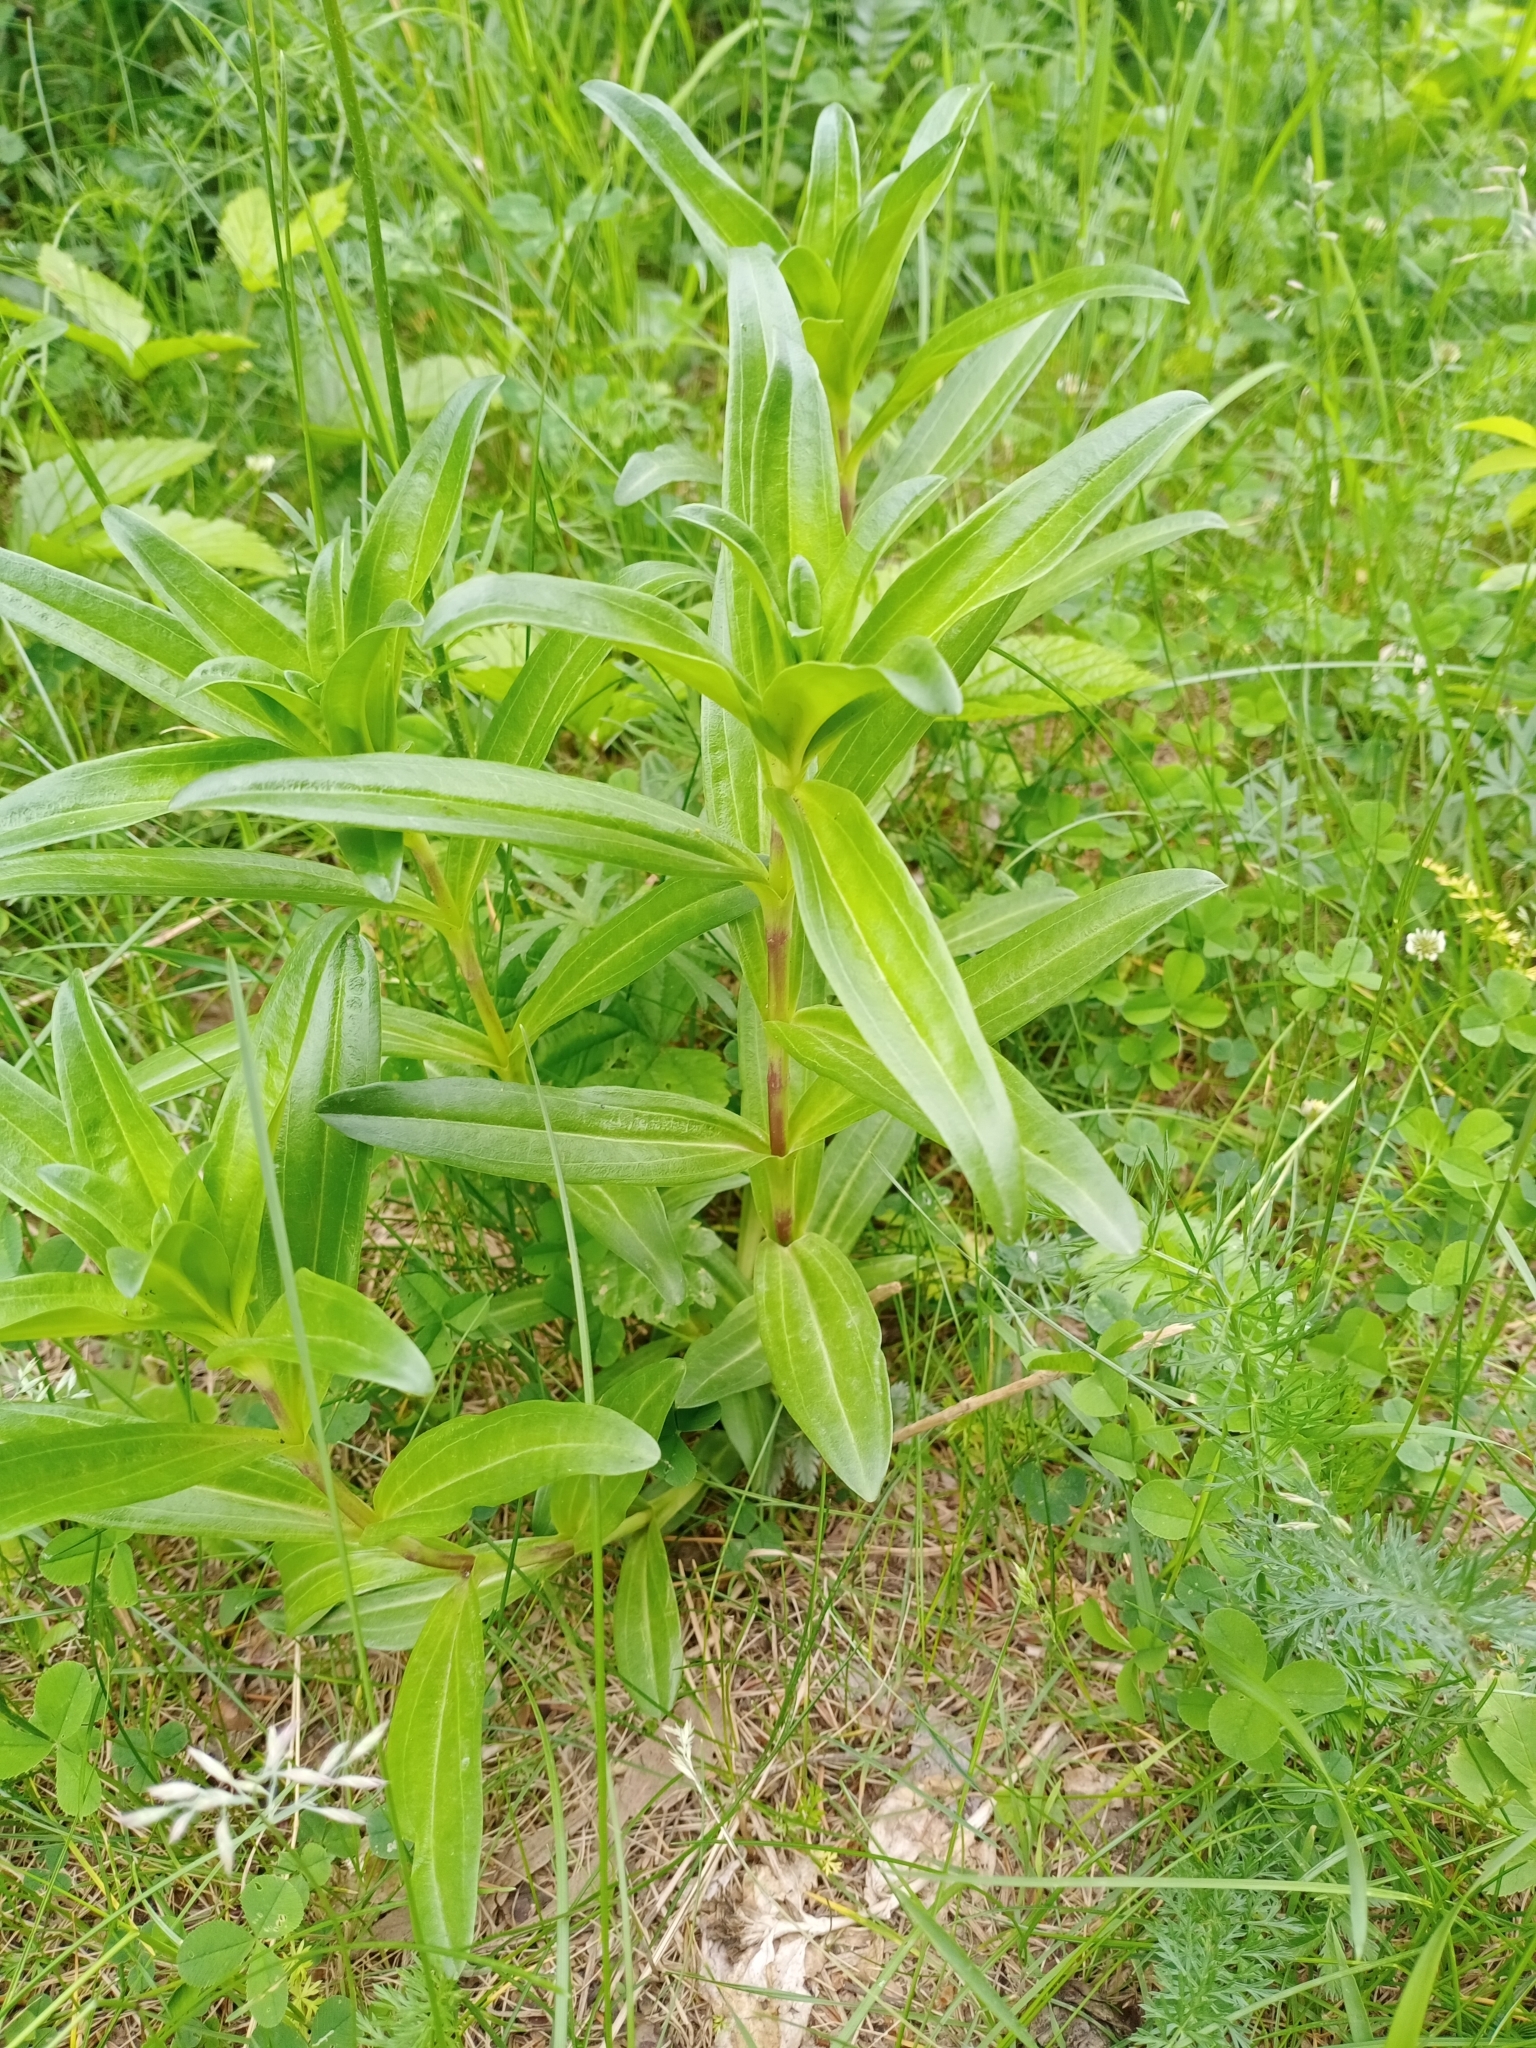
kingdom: Plantae
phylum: Tracheophyta
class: Magnoliopsida
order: Gentianales
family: Gentianaceae
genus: Gentiana
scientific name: Gentiana cruciata
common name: Cross gentian
